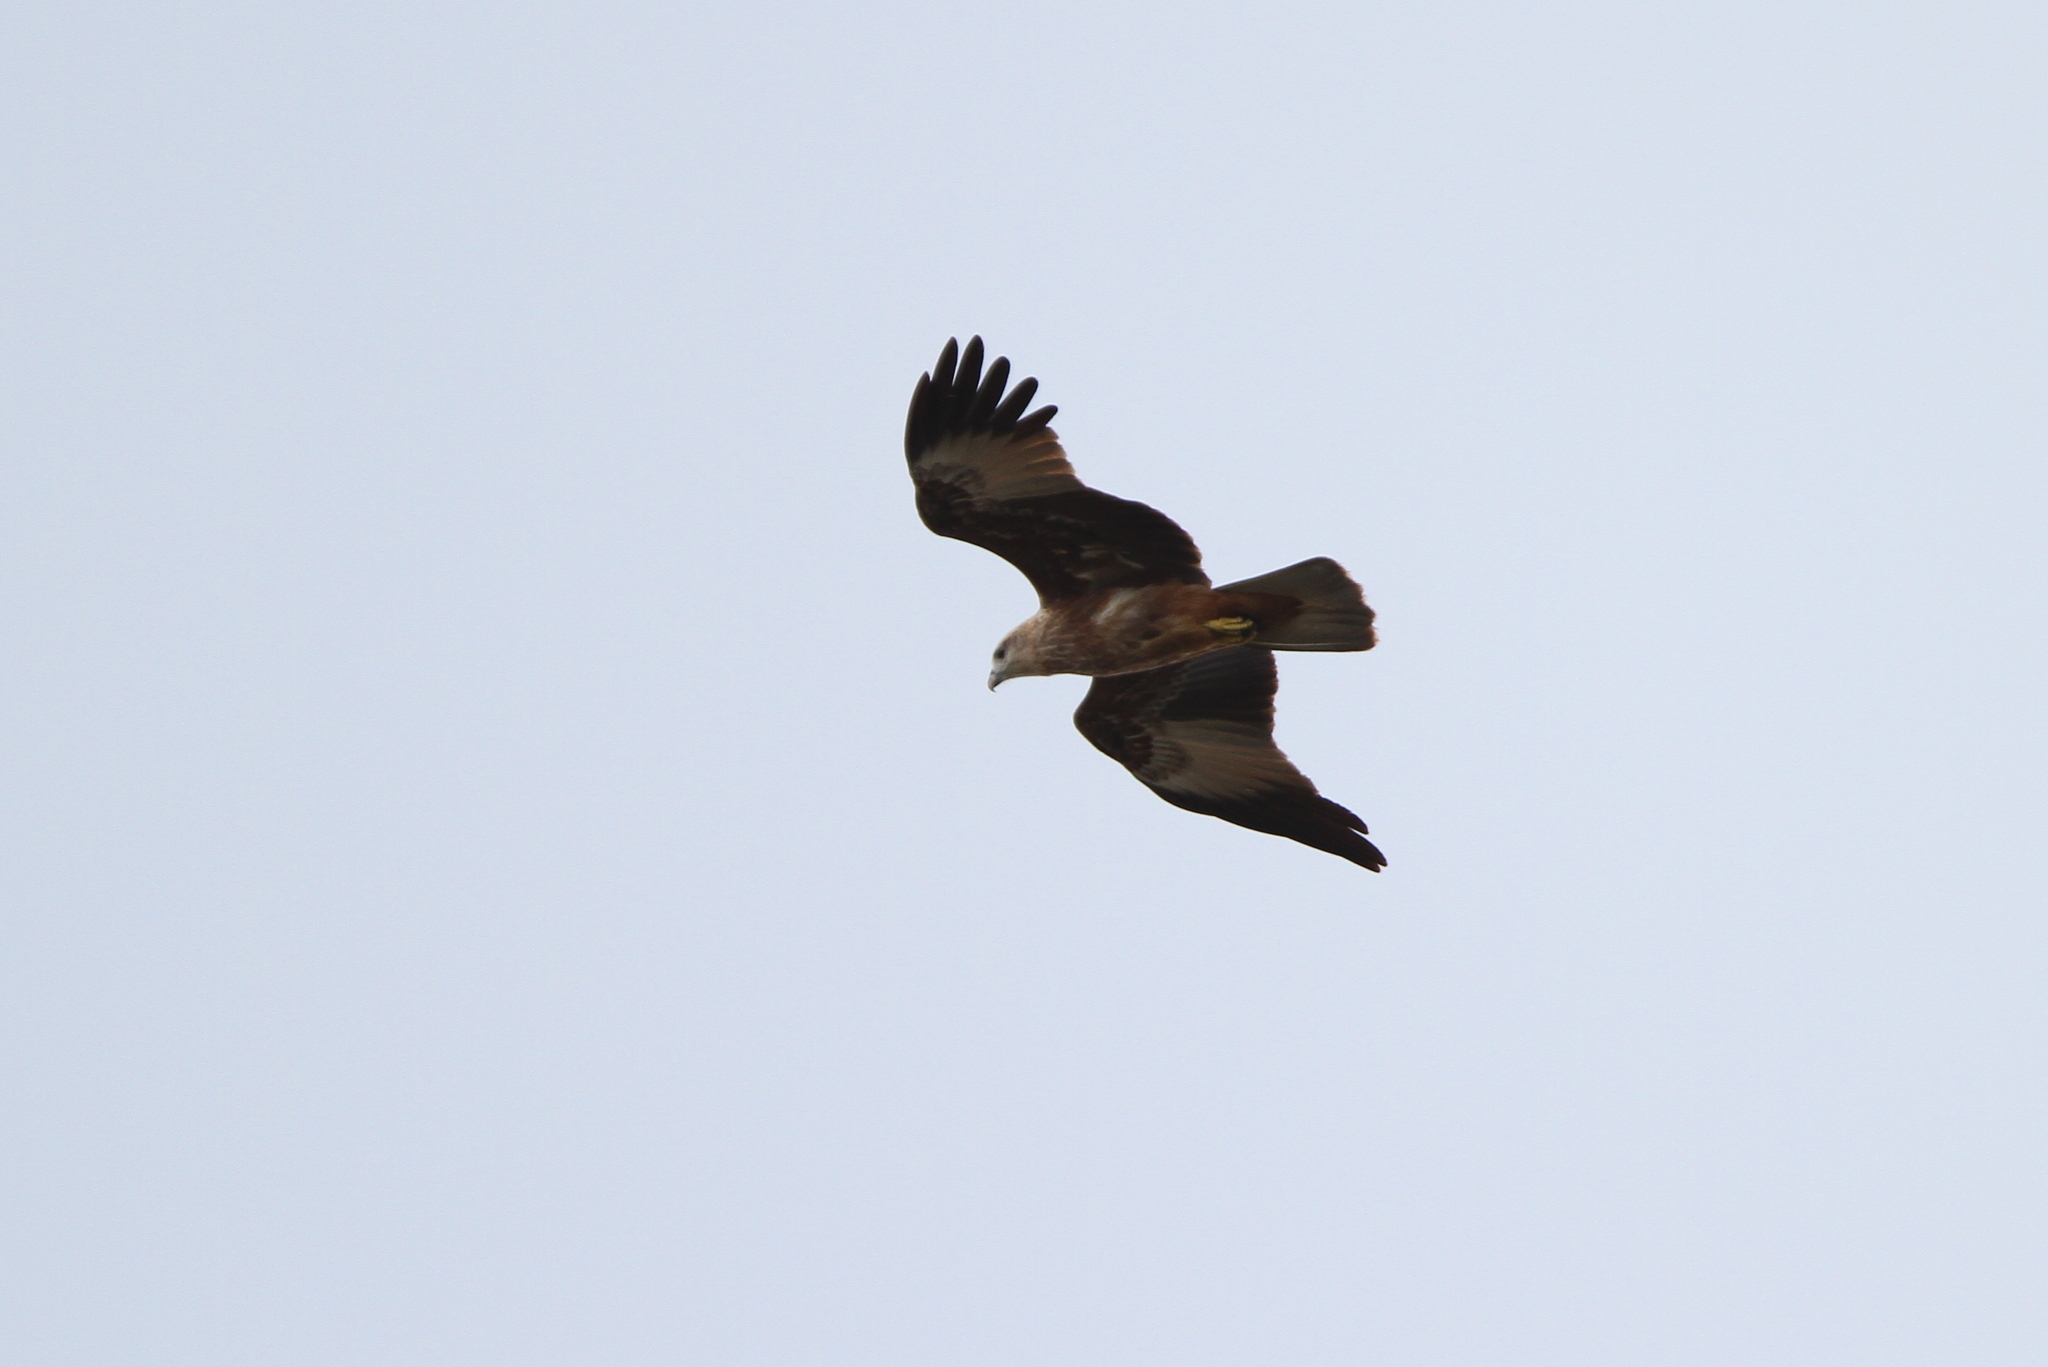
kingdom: Animalia
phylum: Chordata
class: Aves
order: Accipitriformes
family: Accipitridae
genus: Haliastur
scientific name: Haliastur indus
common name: Brahminy kite
